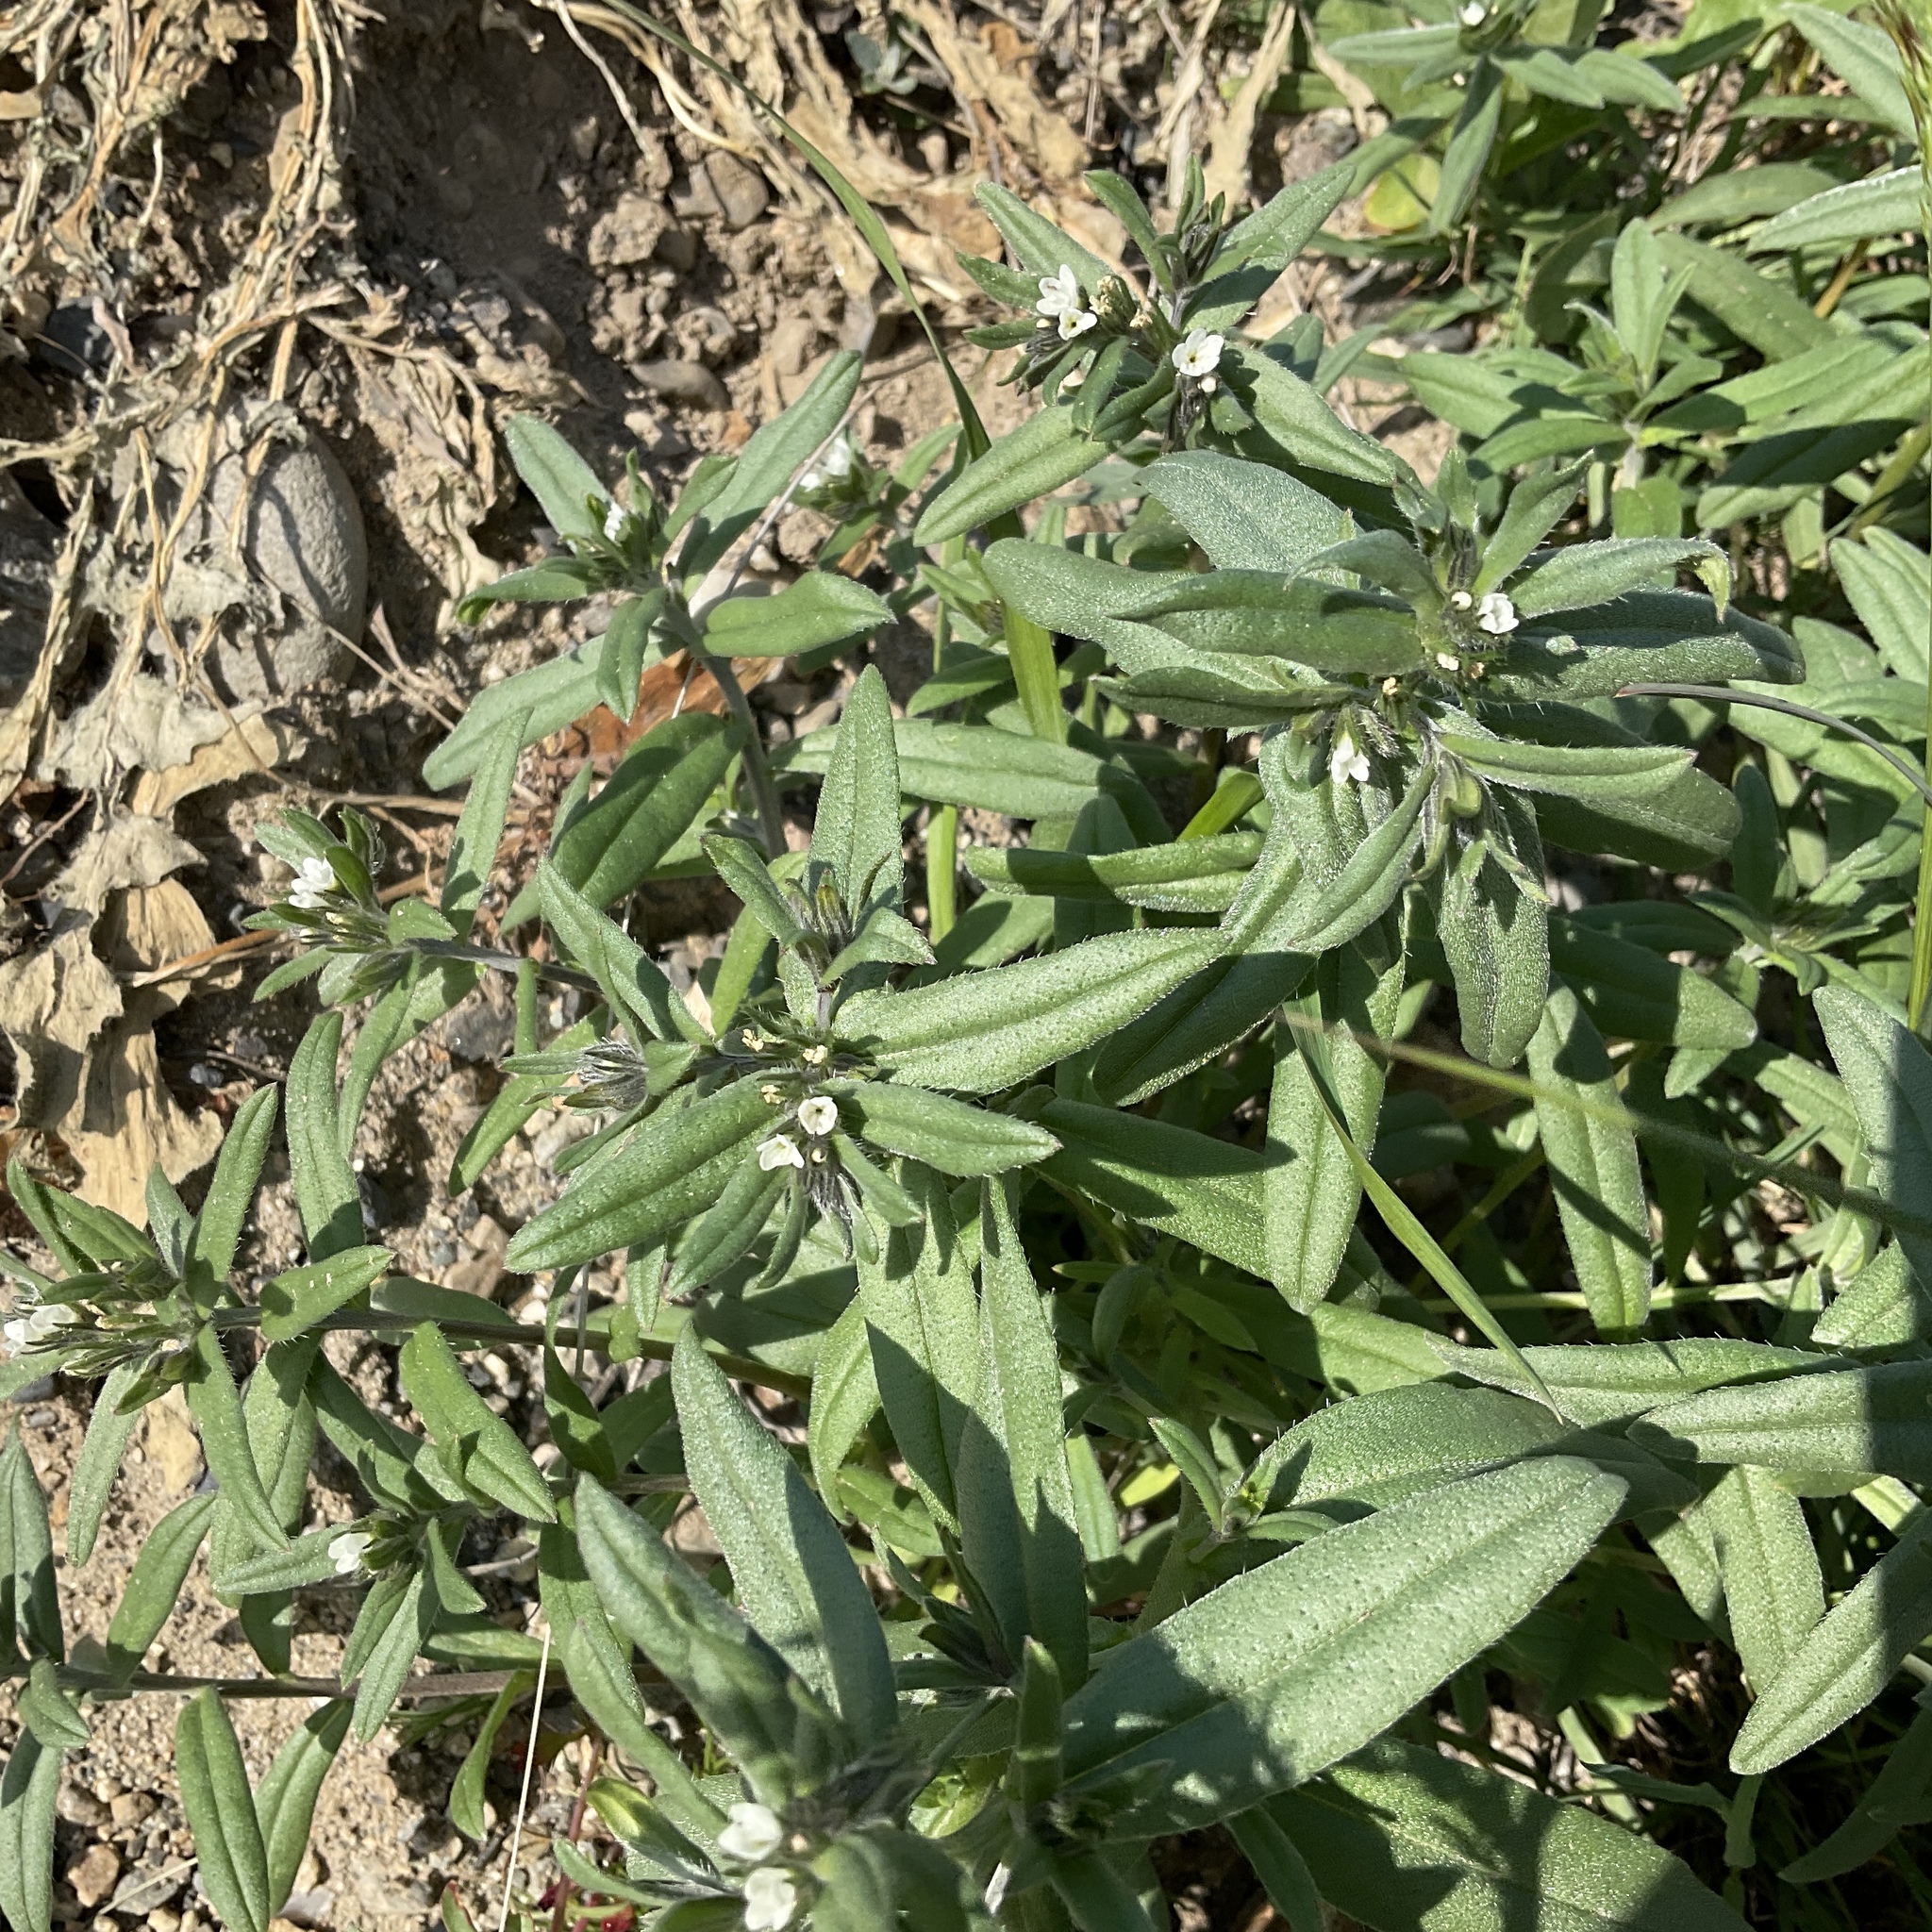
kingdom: Plantae
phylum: Tracheophyta
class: Magnoliopsida
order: Boraginales
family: Boraginaceae
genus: Buglossoides
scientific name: Buglossoides arvensis
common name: Corn gromwell
